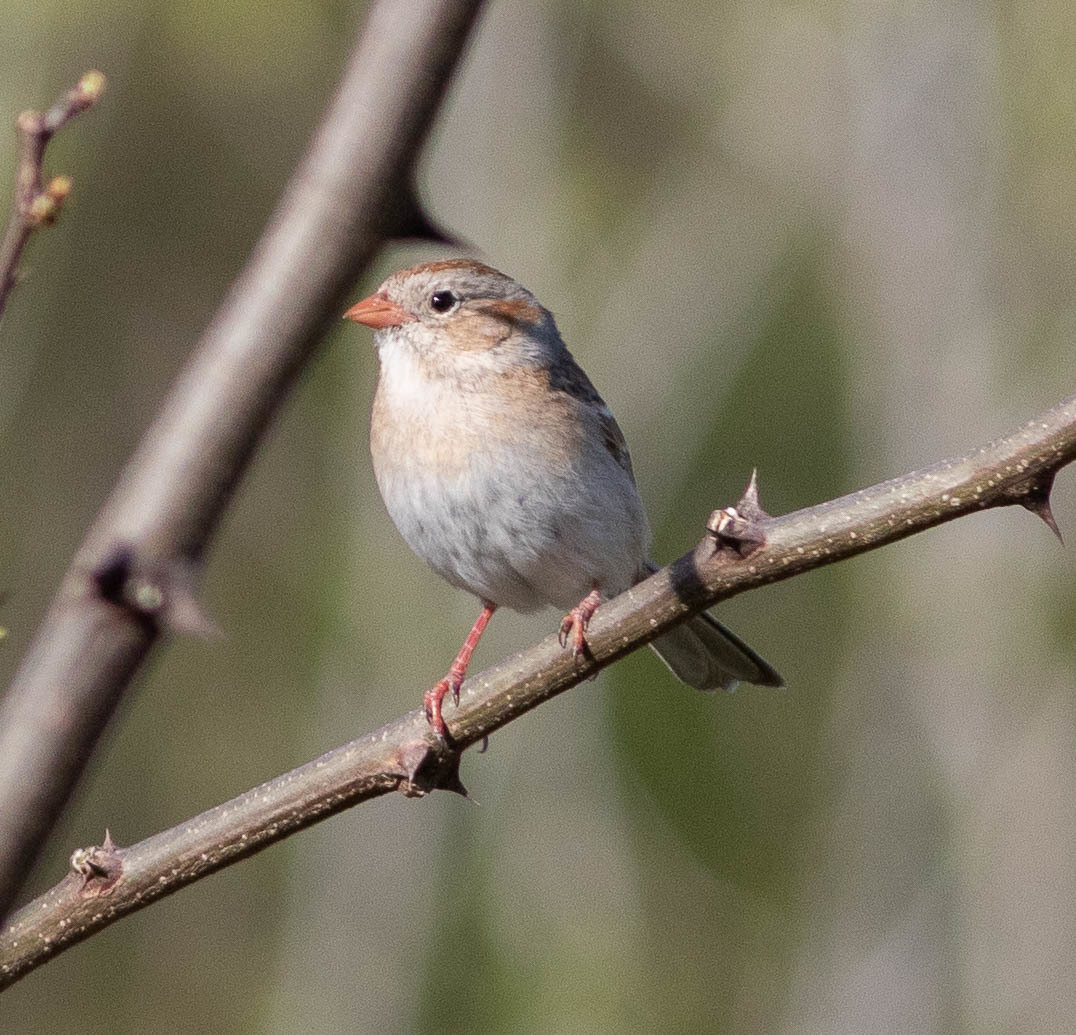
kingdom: Animalia
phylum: Chordata
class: Aves
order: Passeriformes
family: Passerellidae
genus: Spizella
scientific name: Spizella pusilla
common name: Field sparrow
